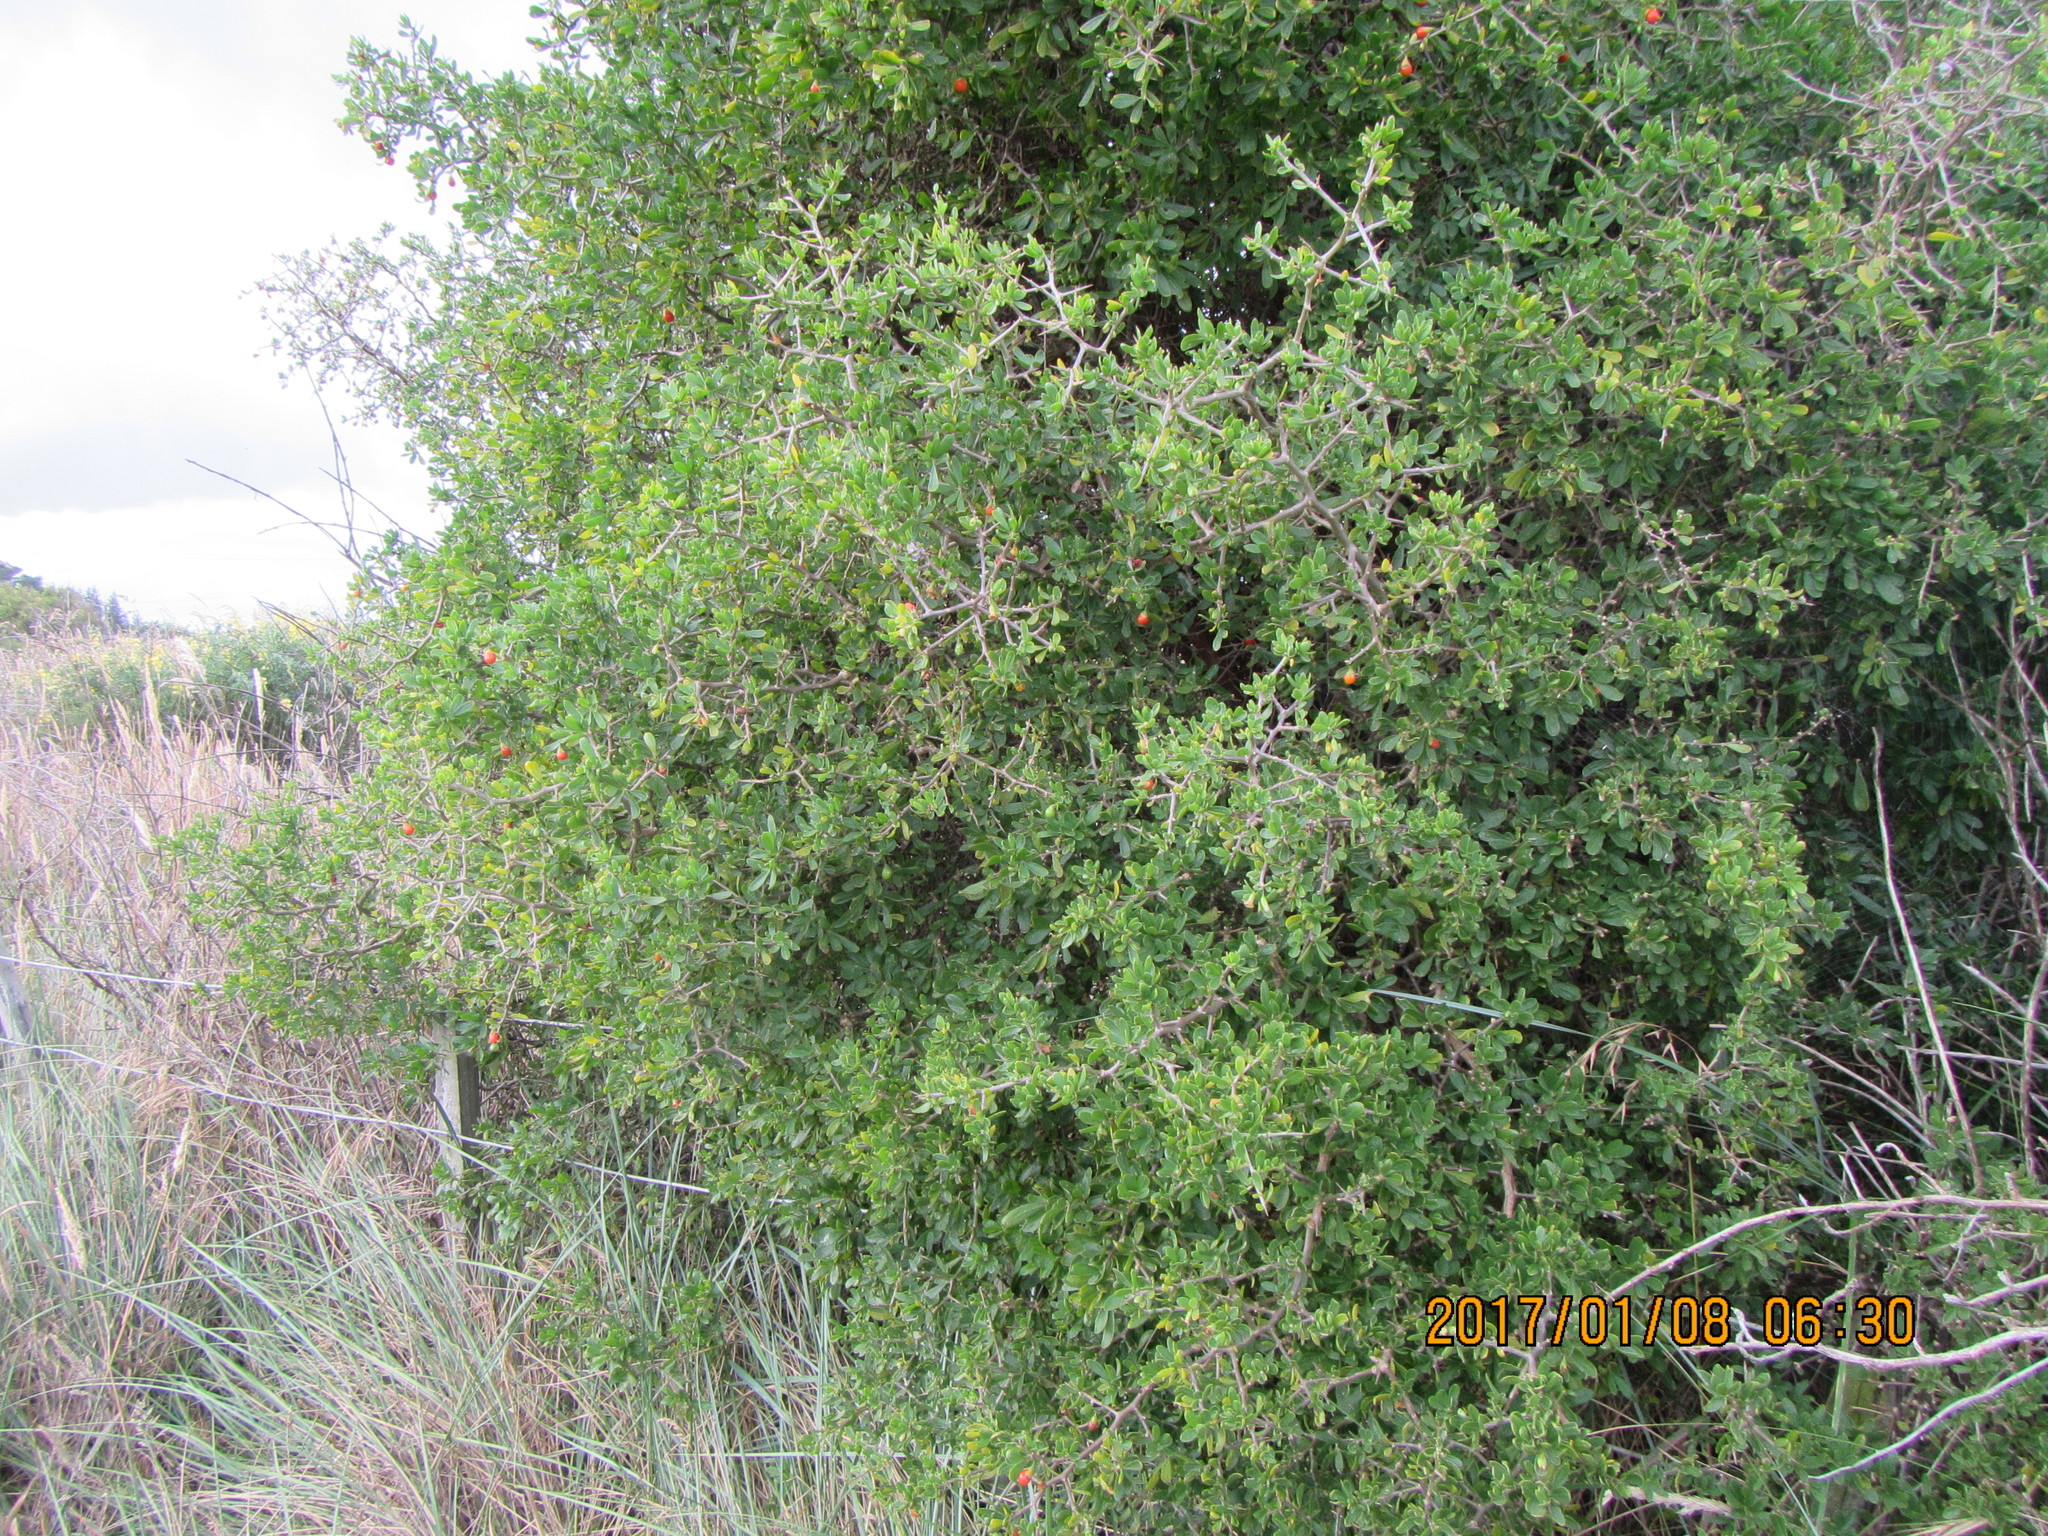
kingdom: Plantae
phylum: Tracheophyta
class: Magnoliopsida
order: Solanales
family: Solanaceae
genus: Lycium
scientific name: Lycium ferocissimum
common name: African boxthorn
